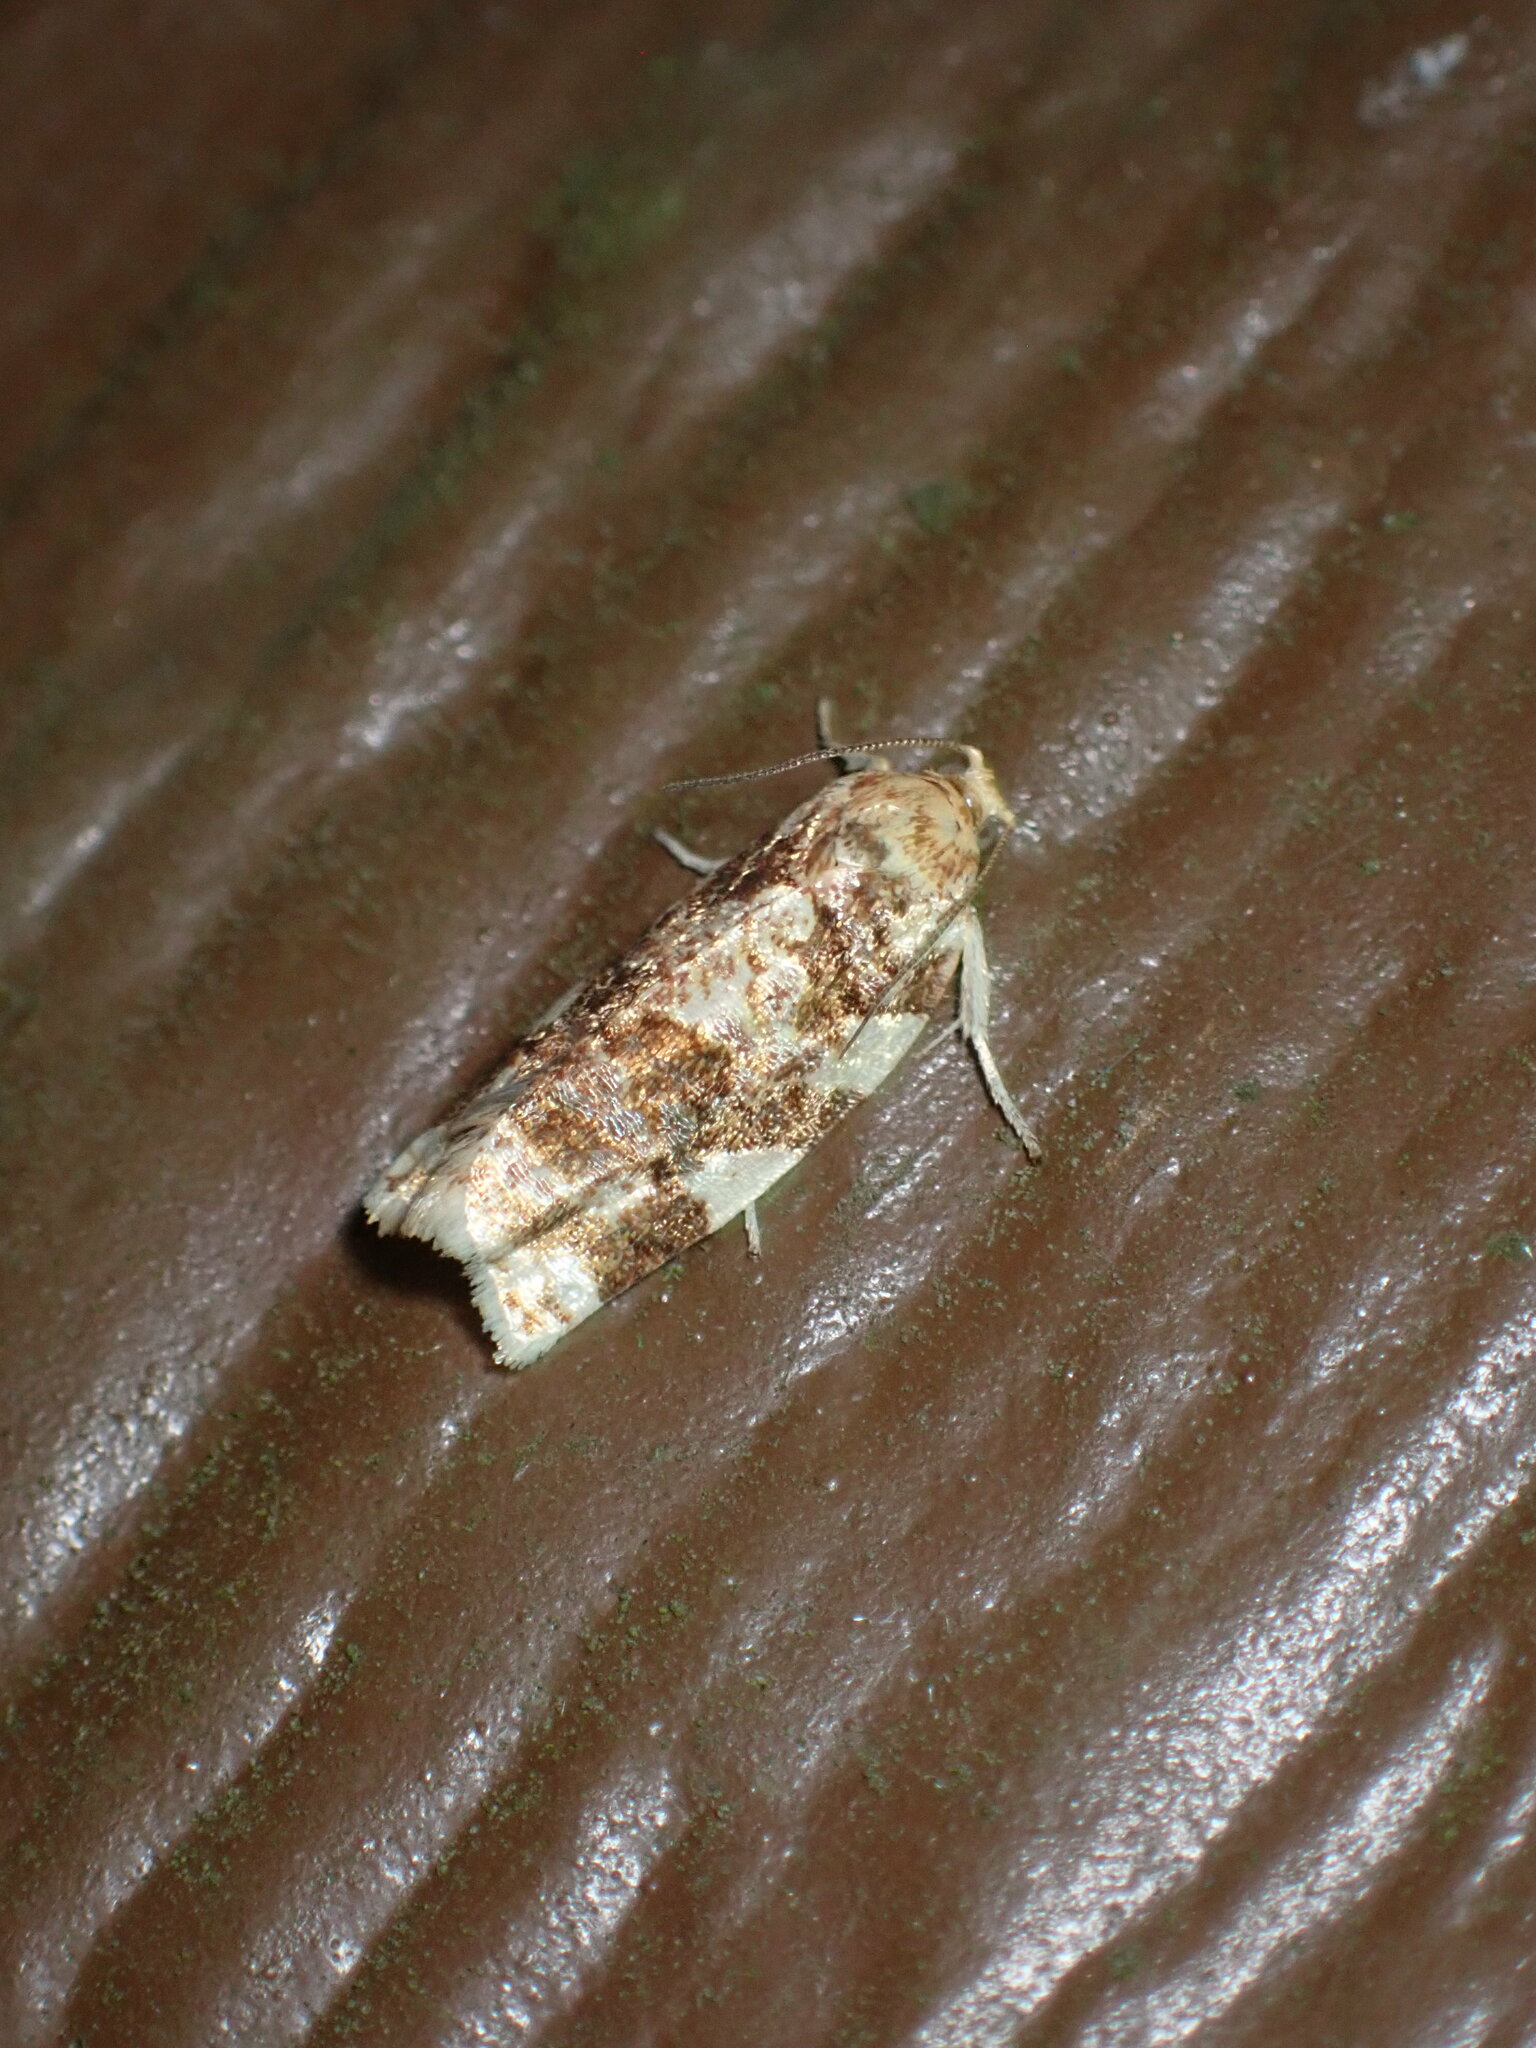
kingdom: Animalia
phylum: Arthropoda
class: Insecta
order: Lepidoptera
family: Tortricidae
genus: Archips
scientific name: Archips argyrospila
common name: Fruit-tree leafroller moth
